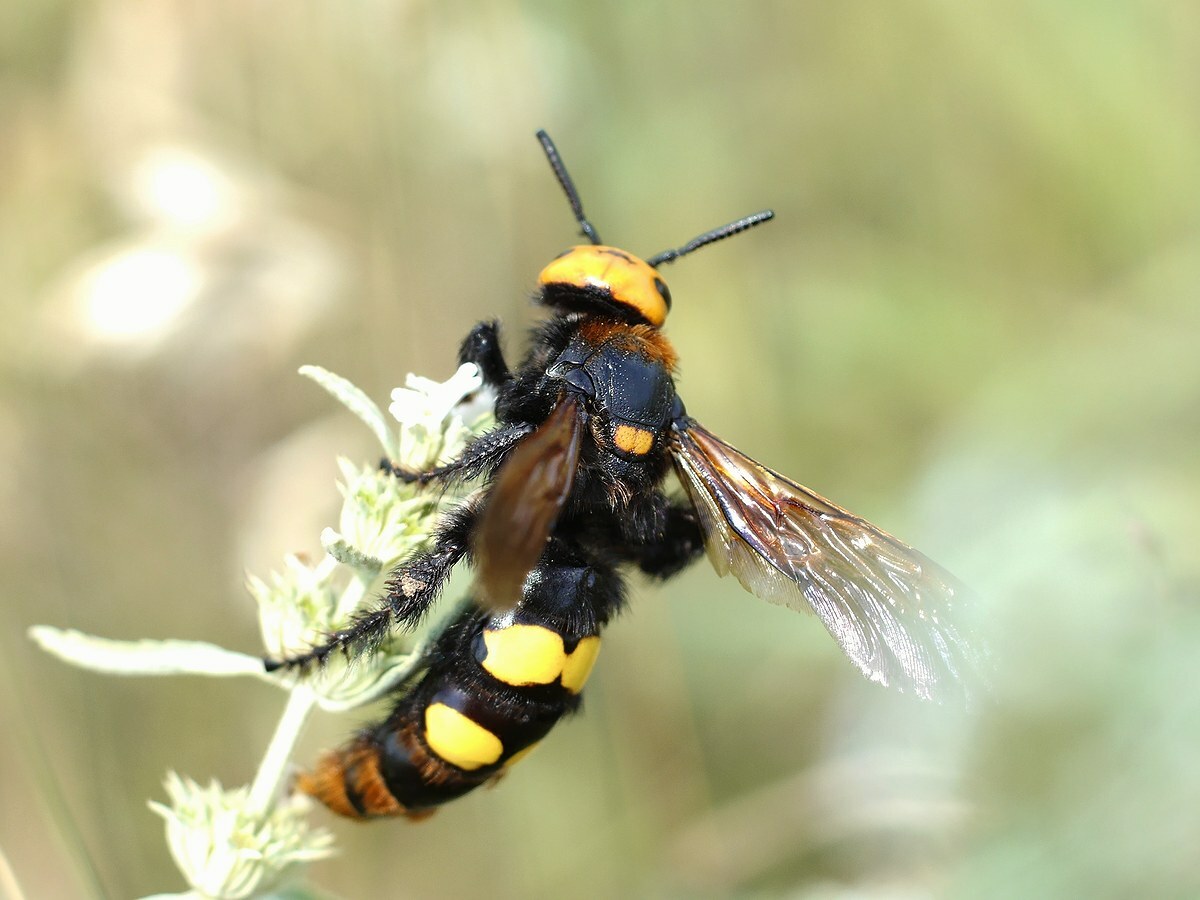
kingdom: Animalia
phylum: Arthropoda
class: Insecta
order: Hymenoptera
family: Scoliidae
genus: Megascolia
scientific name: Megascolia maculata
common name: Mammoth wasp
